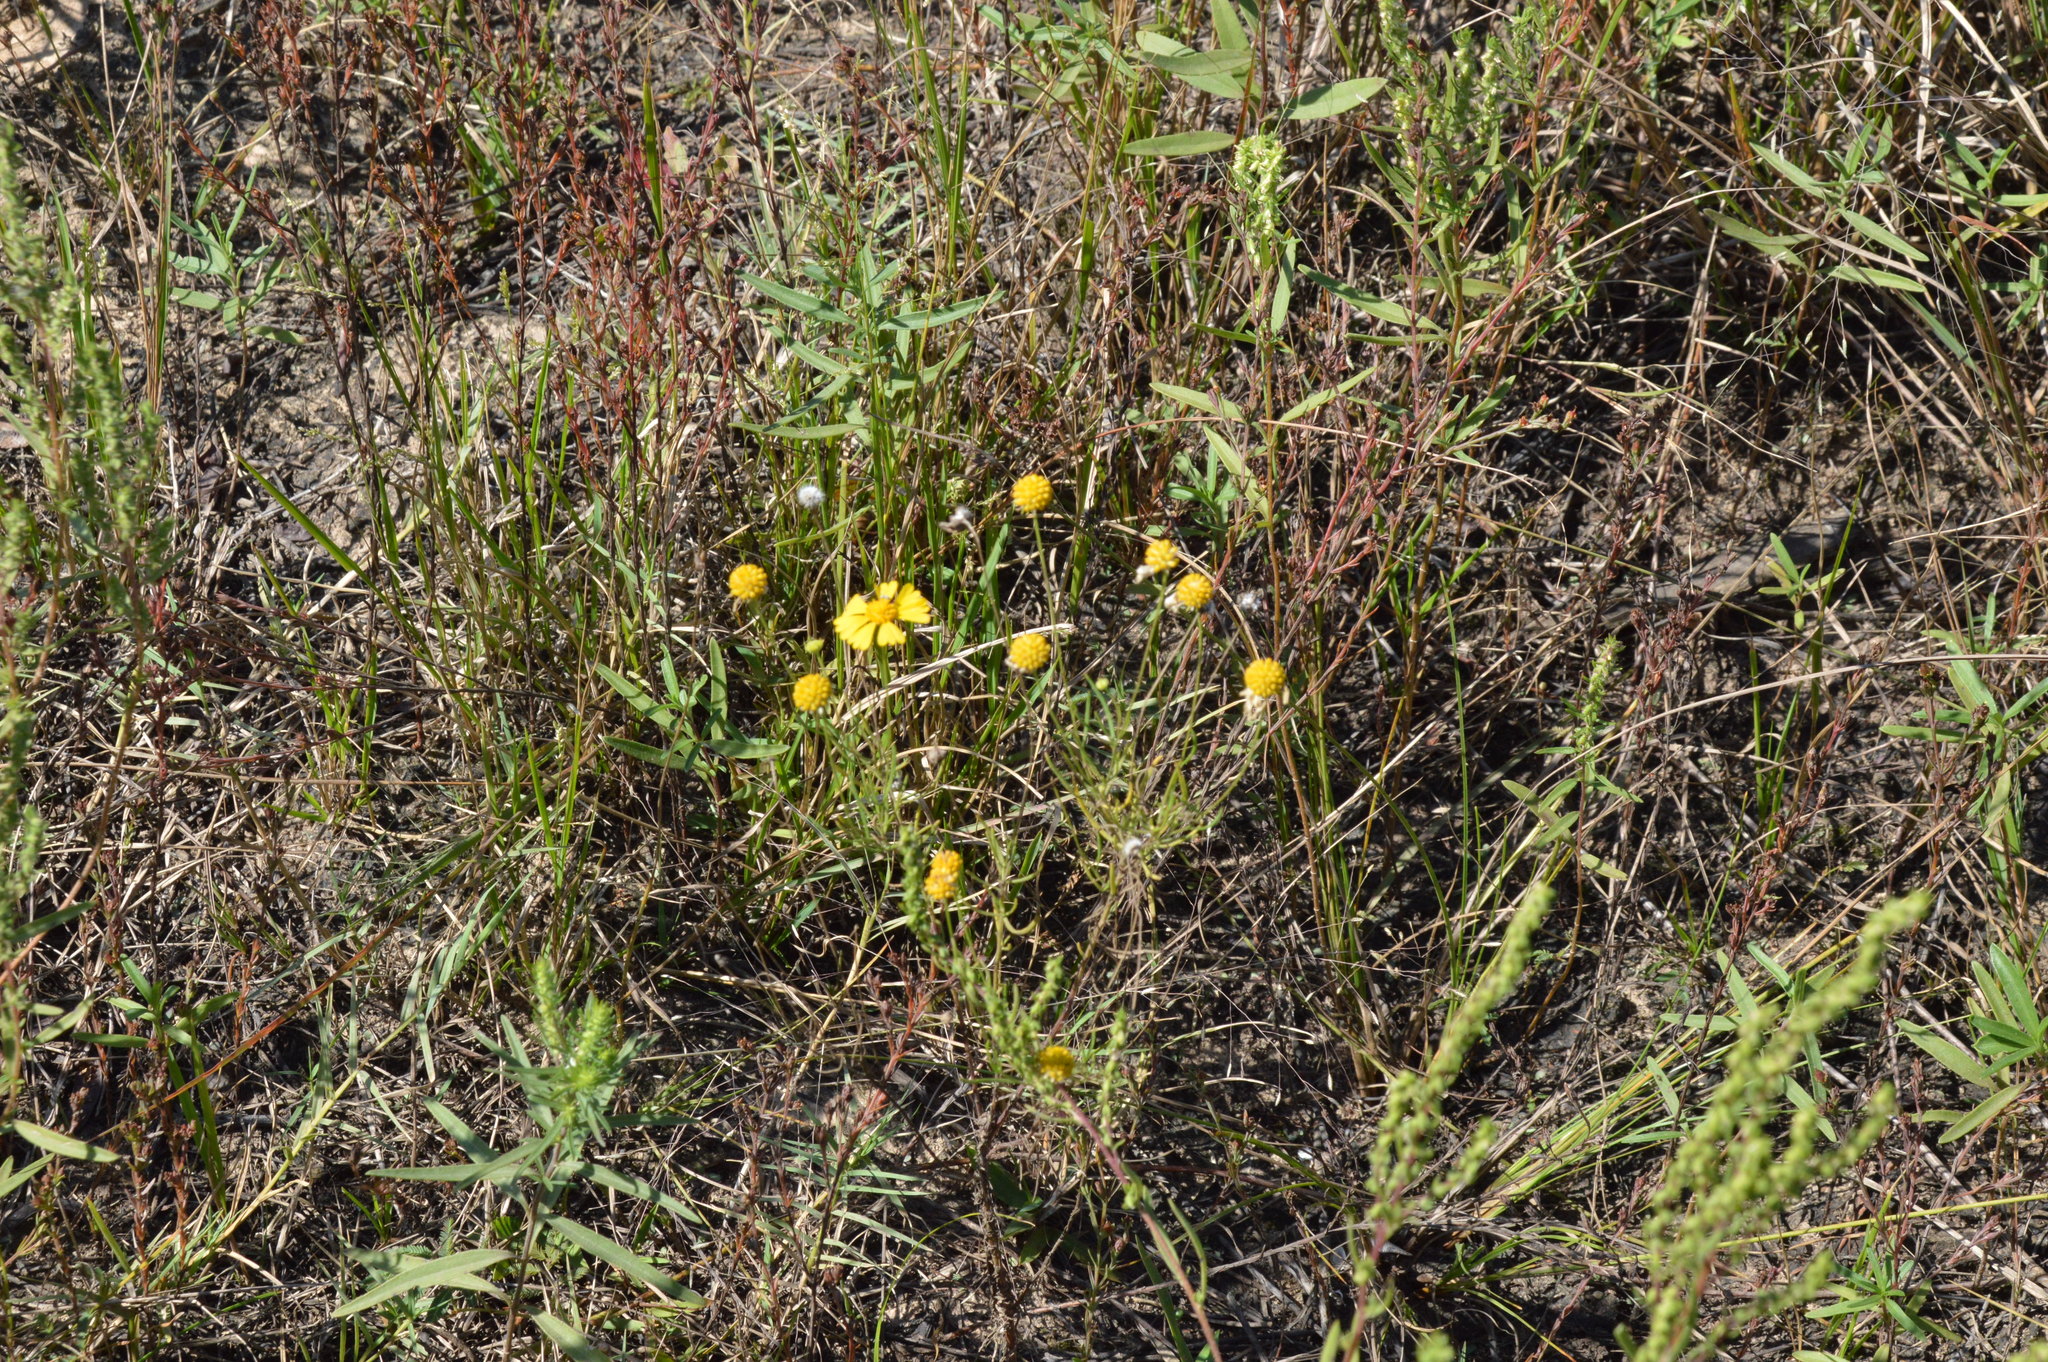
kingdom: Plantae
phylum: Tracheophyta
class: Magnoliopsida
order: Asterales
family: Asteraceae
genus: Helenium
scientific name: Helenium amarum
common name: Bitter sneezeweed
